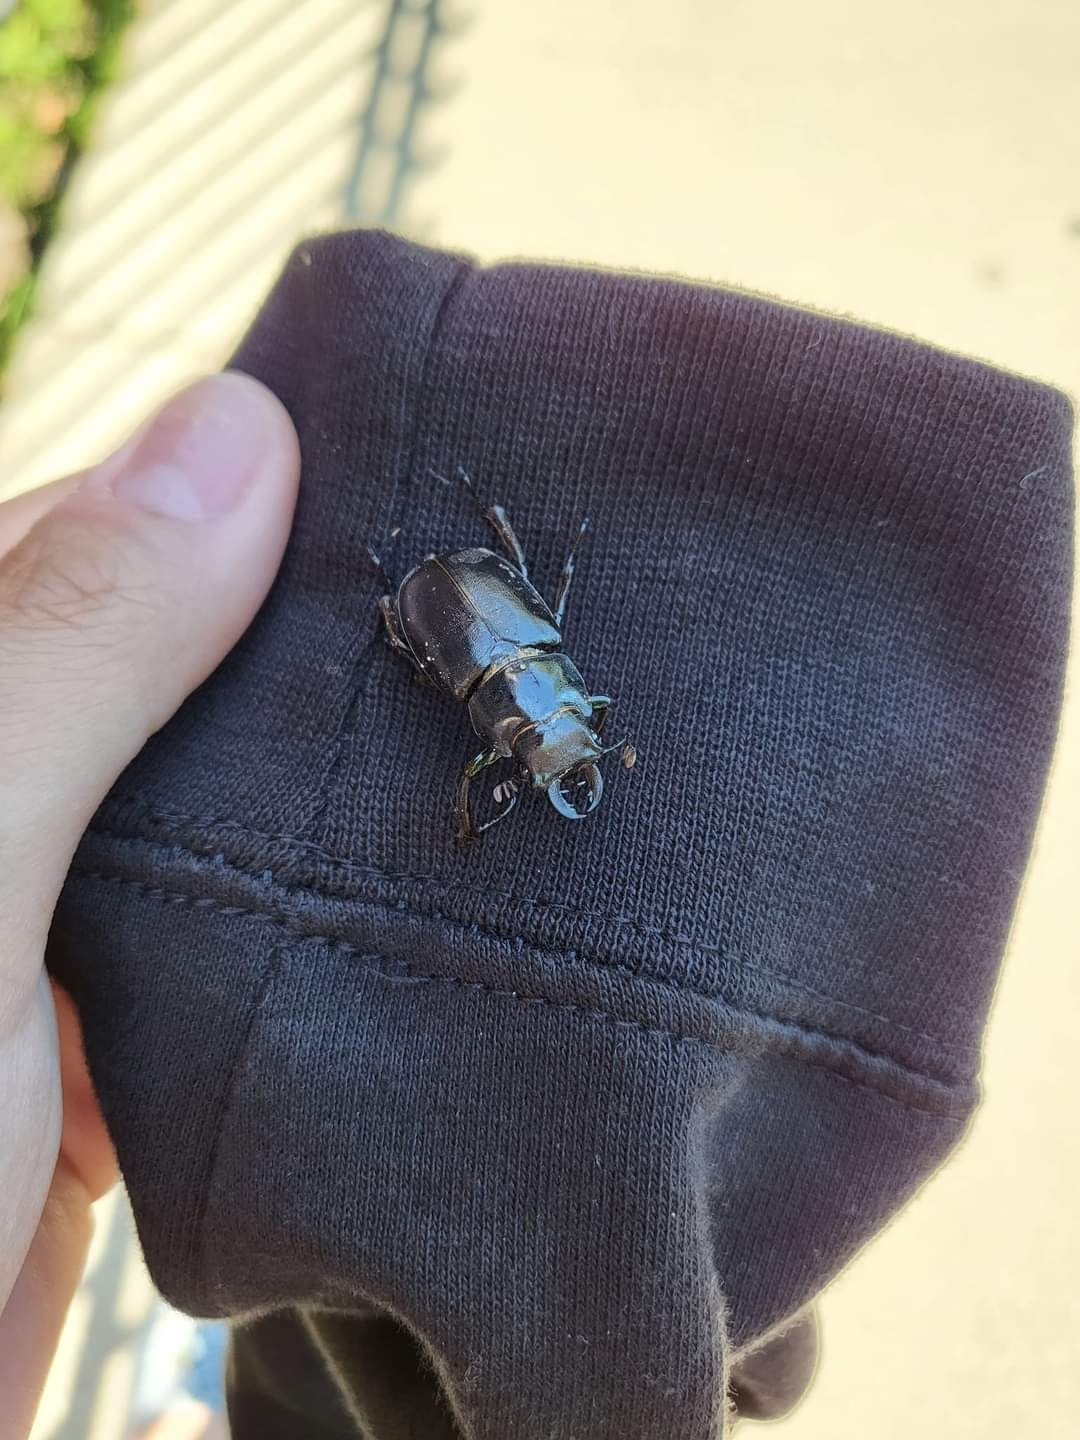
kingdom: Animalia
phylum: Arthropoda
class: Insecta
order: Coleoptera
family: Lucanidae
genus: Lucanus
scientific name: Lucanus placidus
